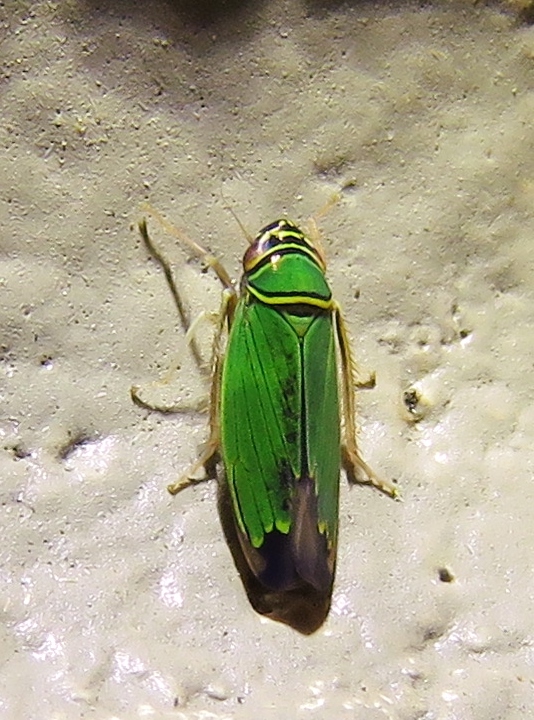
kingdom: Animalia
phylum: Arthropoda
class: Insecta
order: Hemiptera
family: Cicadellidae
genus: Tylozygus
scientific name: Tylozygus geometricus
